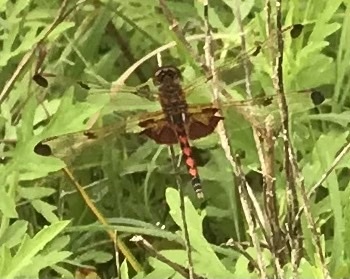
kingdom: Animalia
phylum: Arthropoda
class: Insecta
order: Odonata
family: Libellulidae
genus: Celithemis
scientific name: Celithemis elisa
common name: Calico pennant
